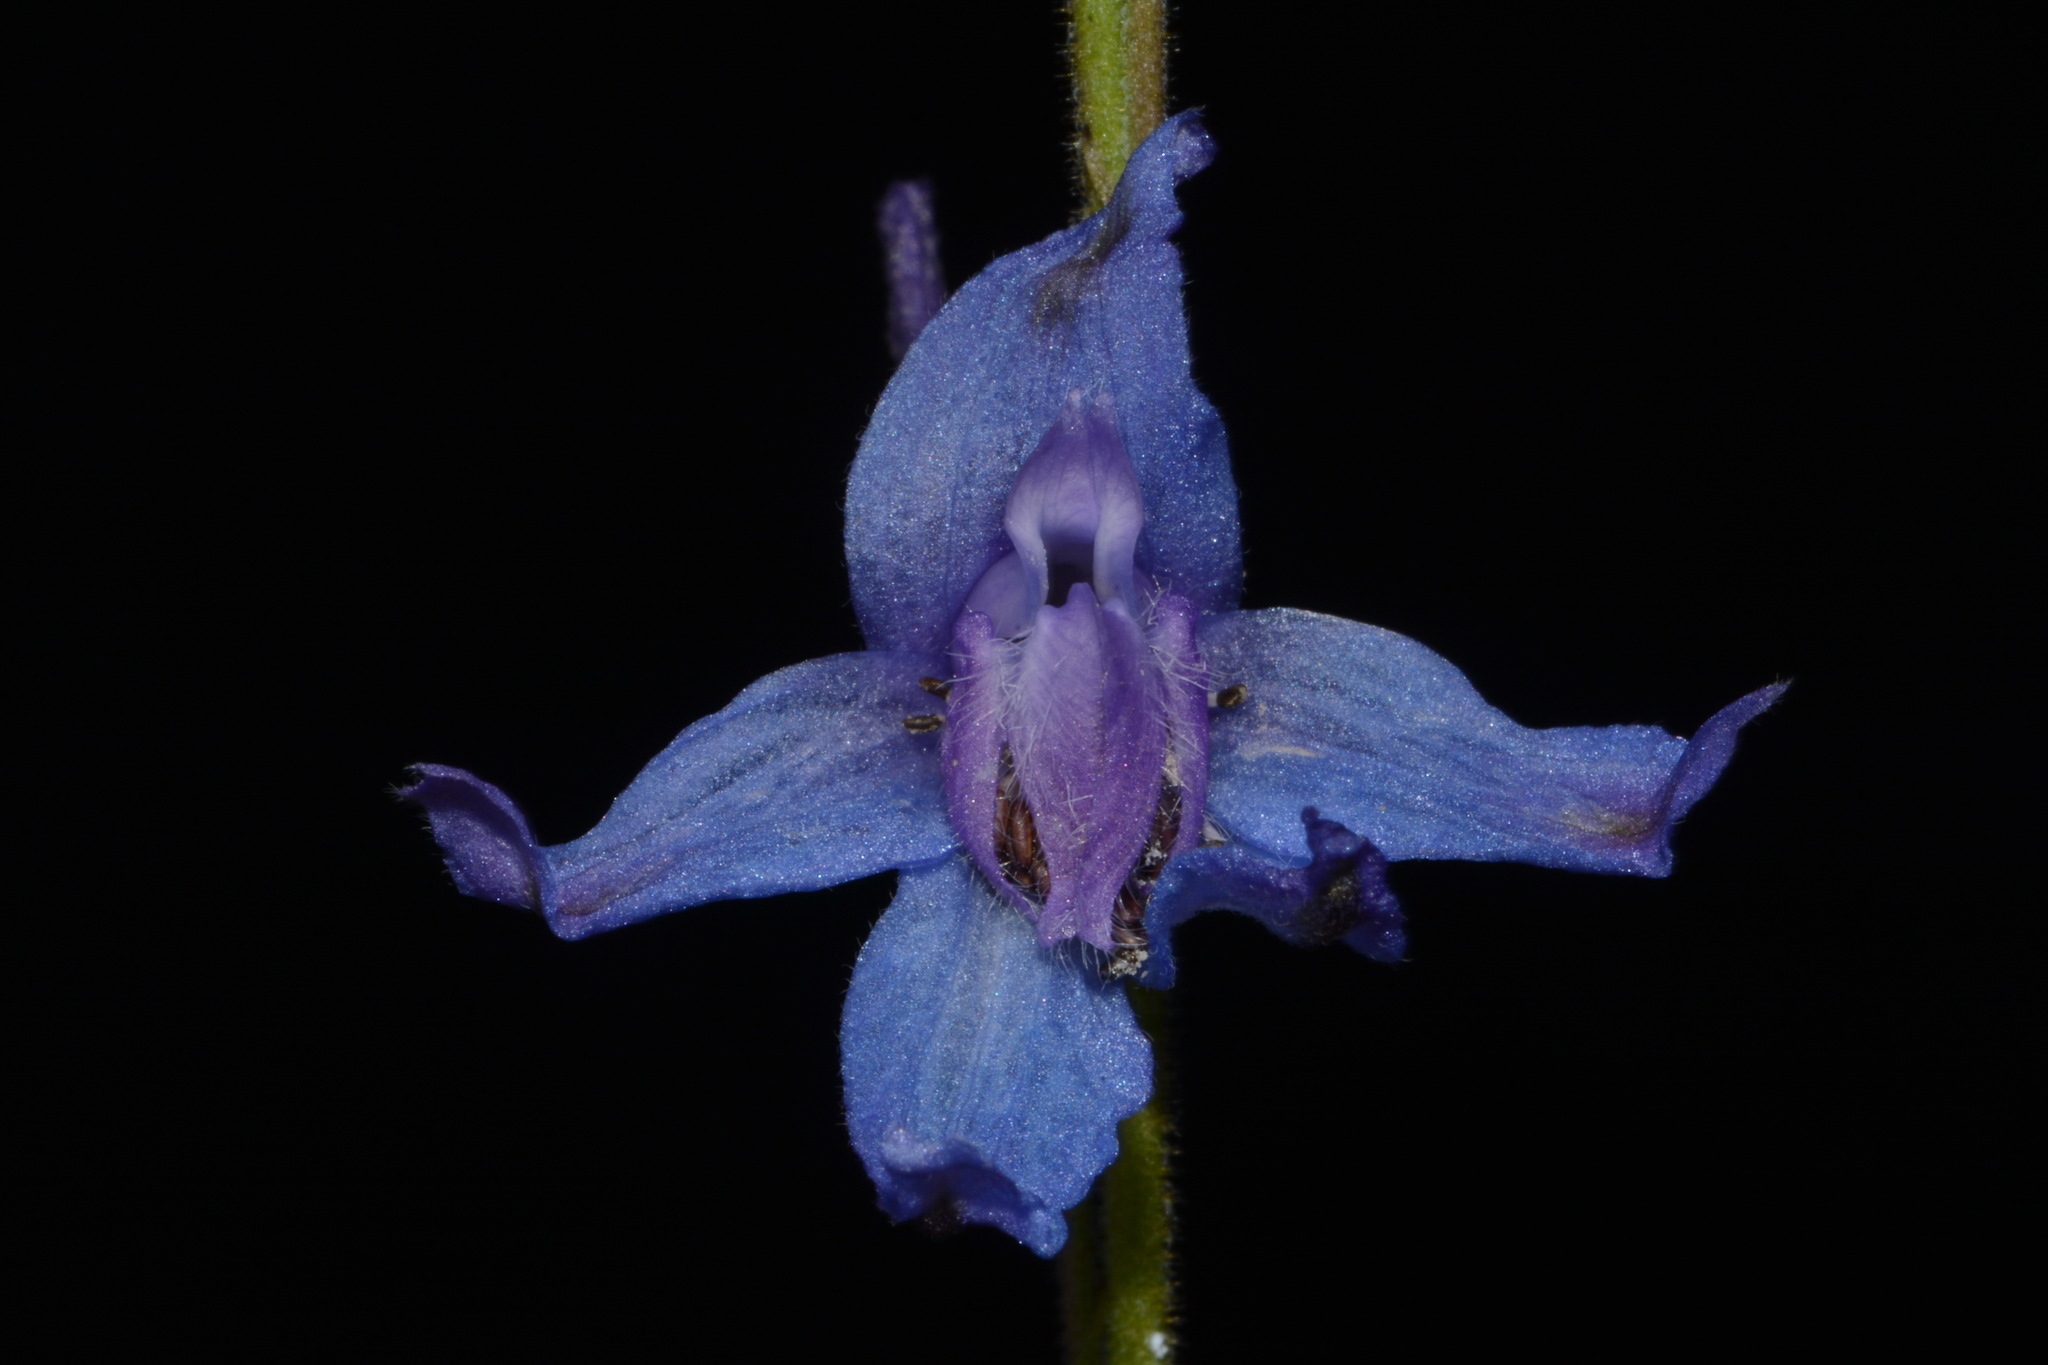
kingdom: Plantae
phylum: Tracheophyta
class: Magnoliopsida
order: Ranunculales
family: Ranunculaceae
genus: Delphinium
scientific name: Delphinium carolinianum
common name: Carolina larkspur
